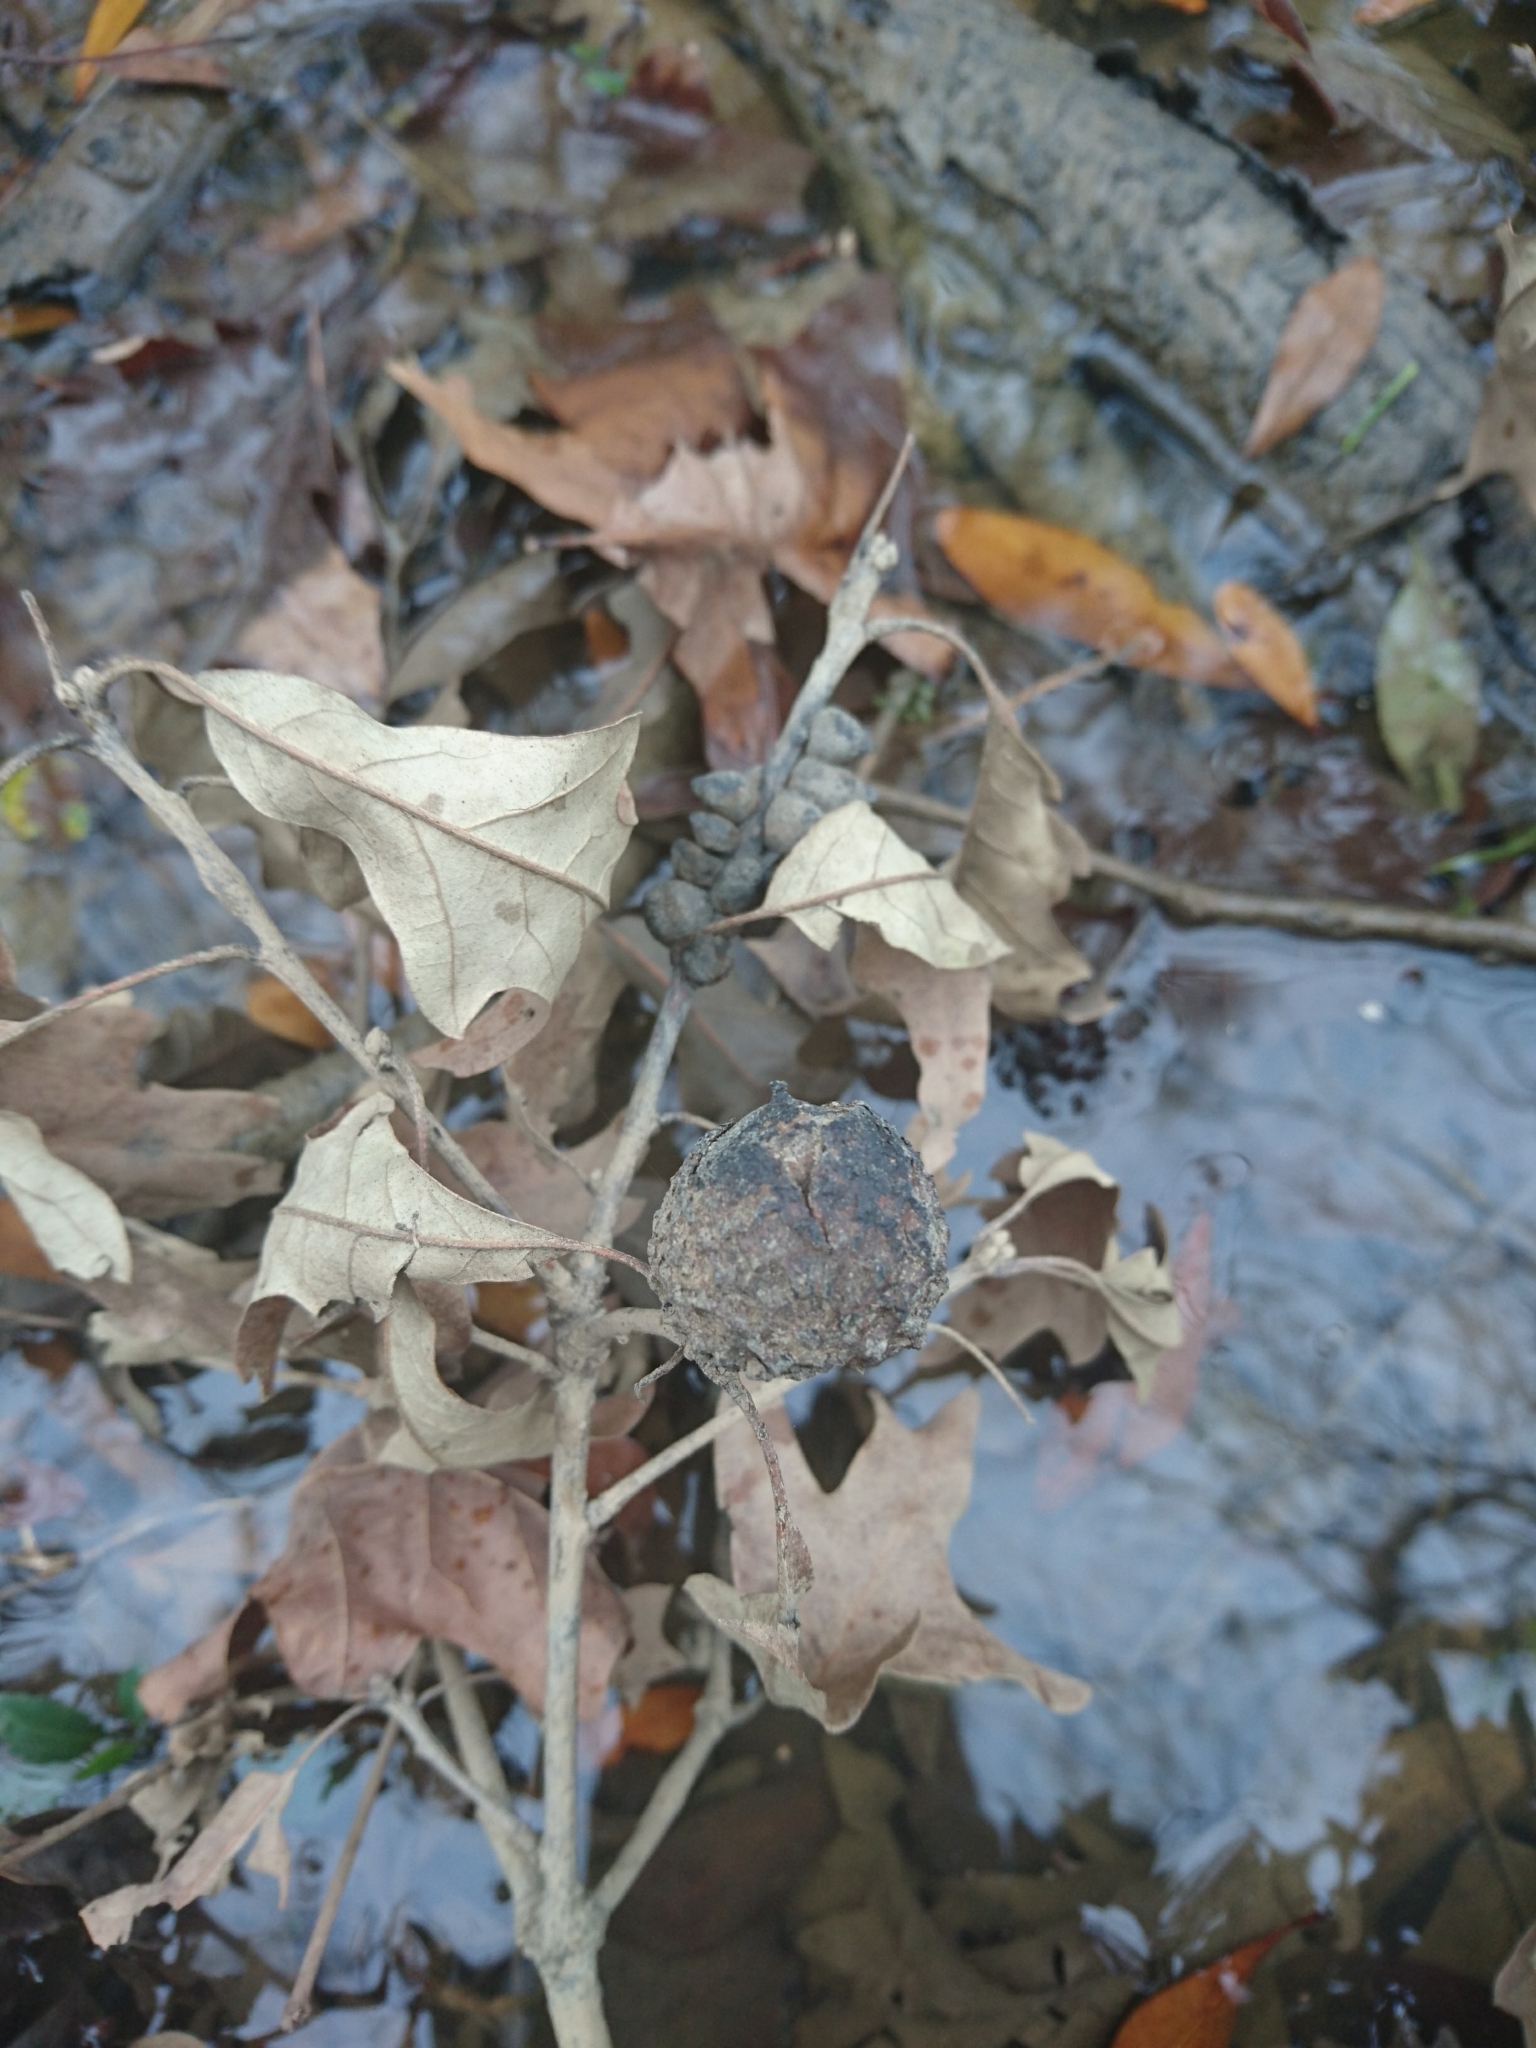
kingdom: Plantae
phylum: Tracheophyta
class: Magnoliopsida
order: Fagales
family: Fagaceae
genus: Quercus
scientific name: Quercus lyrata
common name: Overcup oak
